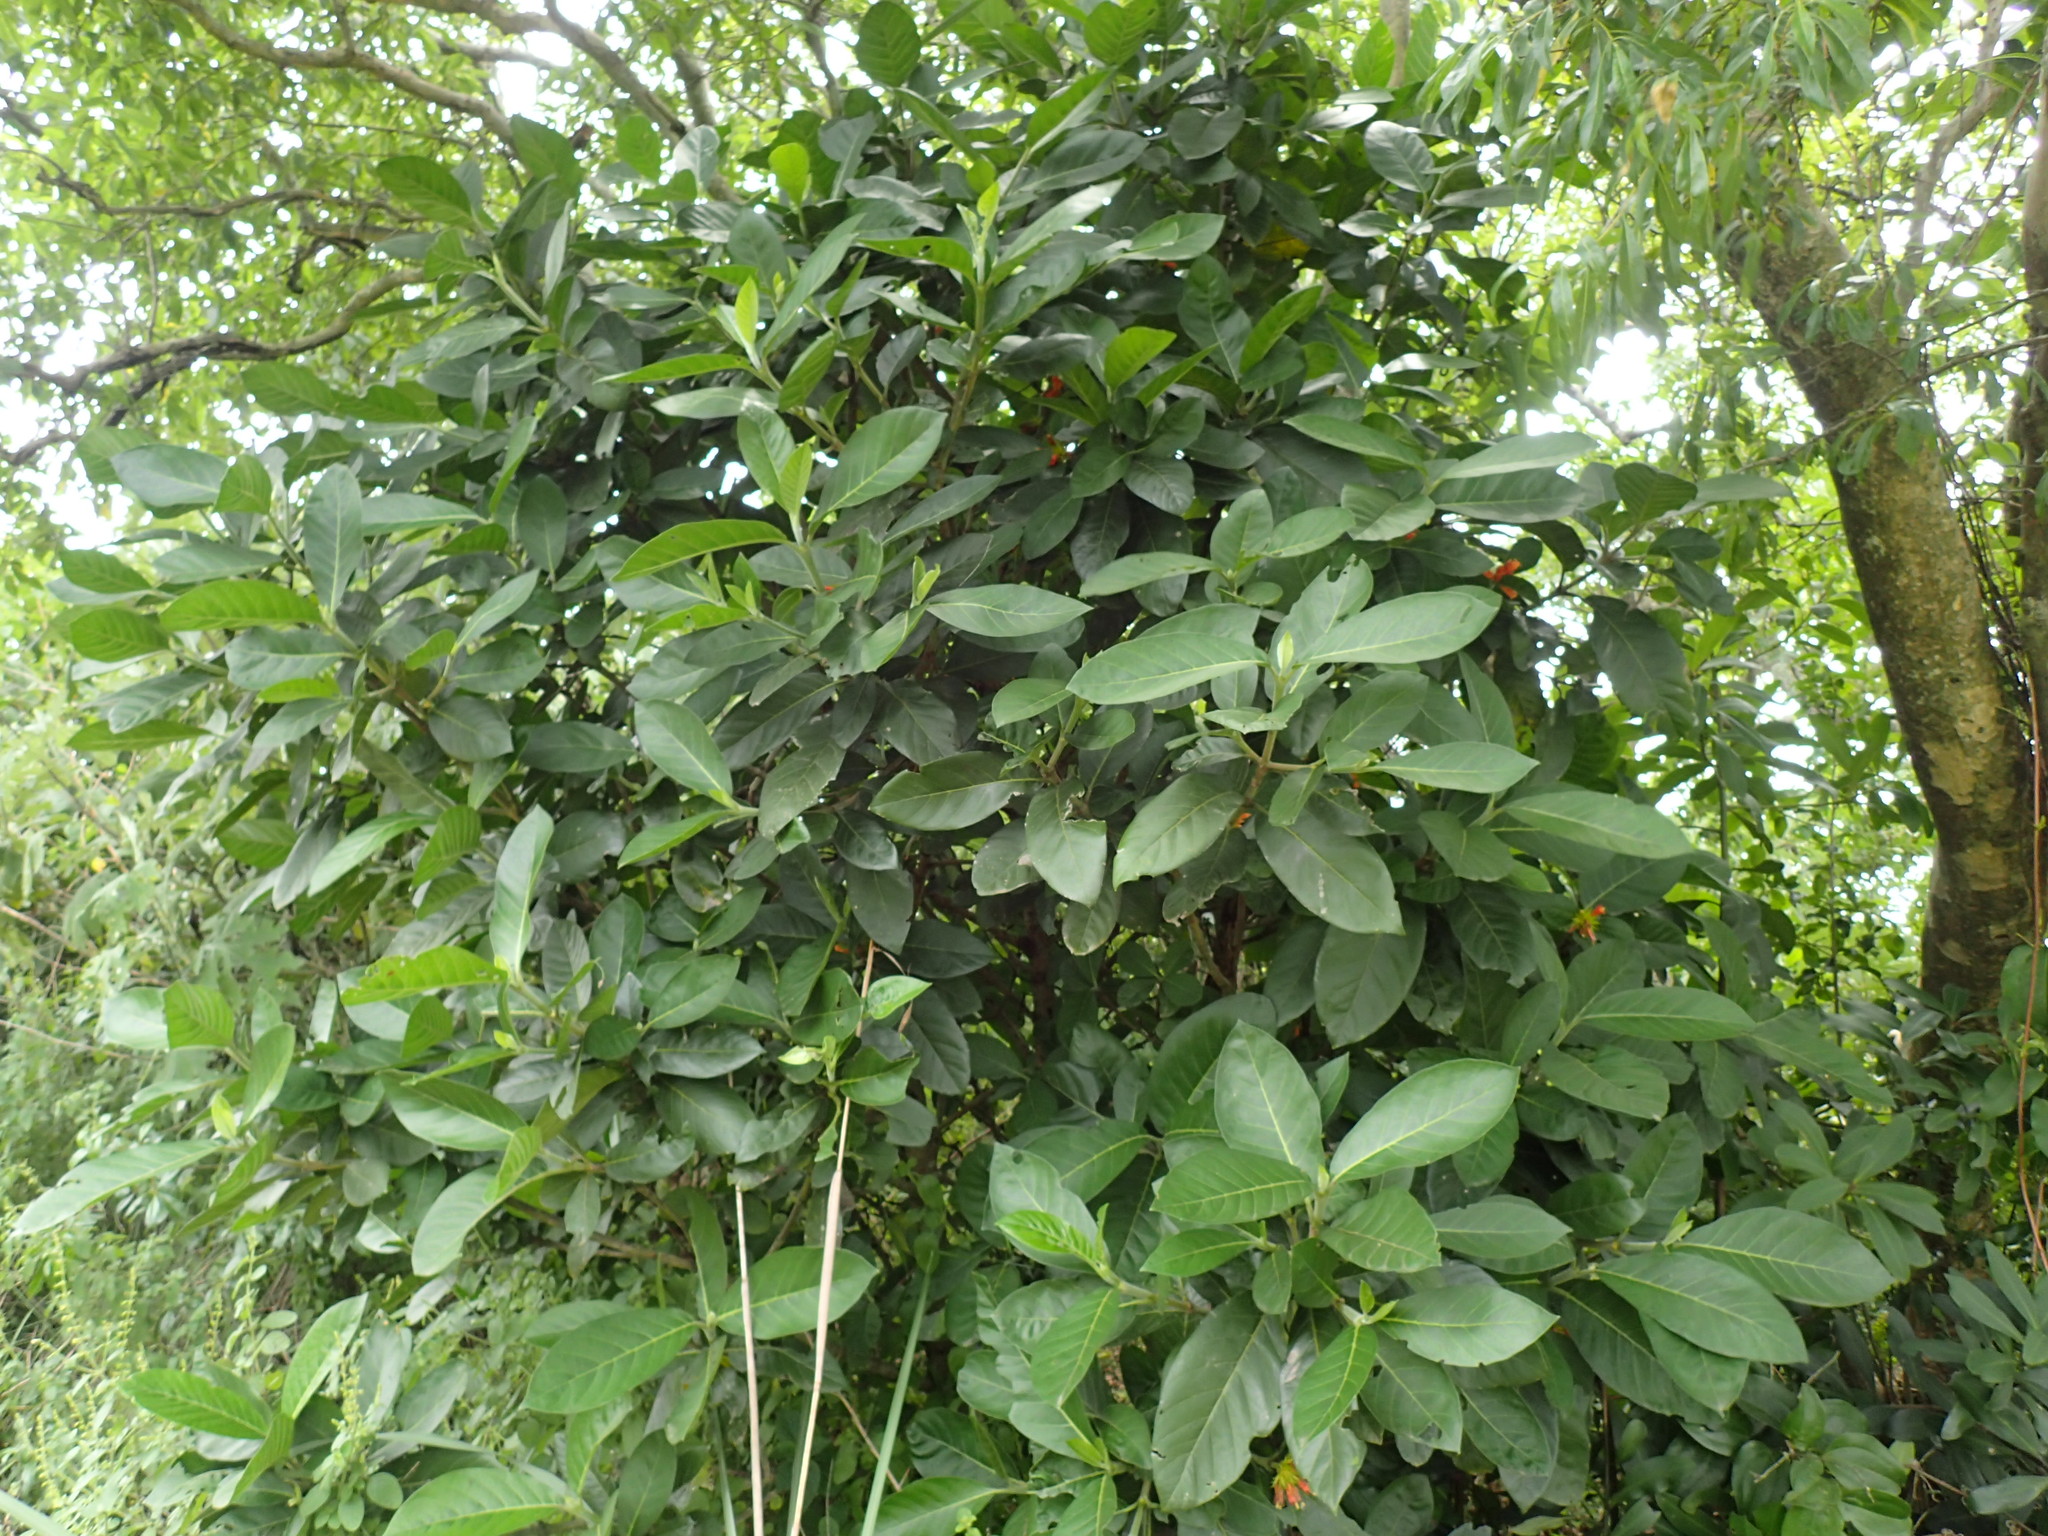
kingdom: Plantae
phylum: Tracheophyta
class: Magnoliopsida
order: Gentianales
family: Rubiaceae
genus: Burchellia
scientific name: Burchellia bubalina
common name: Wild pomegranate
